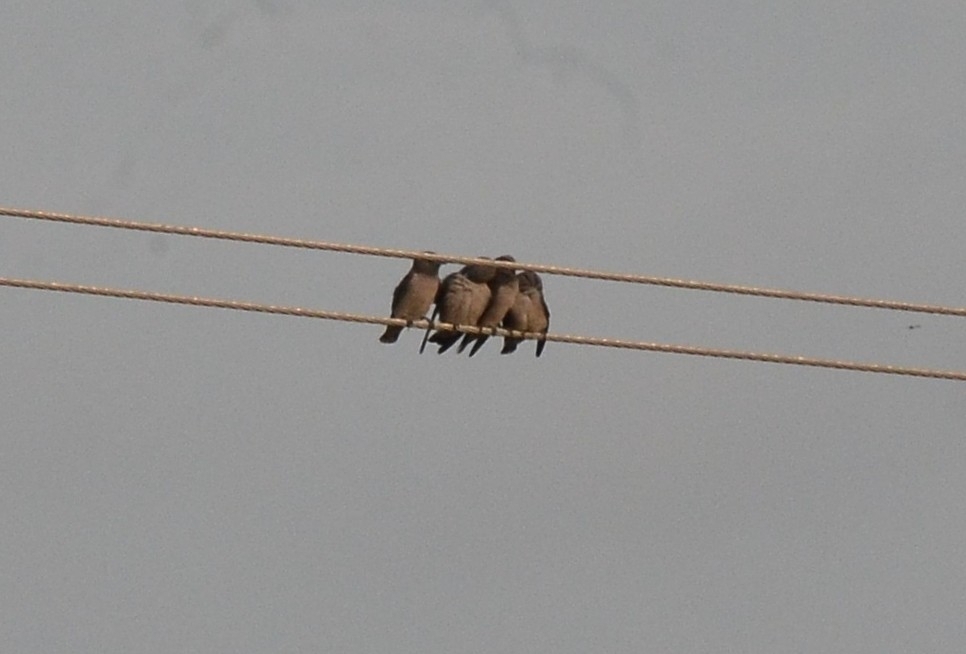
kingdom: Animalia
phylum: Chordata
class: Aves
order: Passeriformes
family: Artamidae
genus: Artamus
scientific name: Artamus fuscus
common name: Ashy woodswallow
